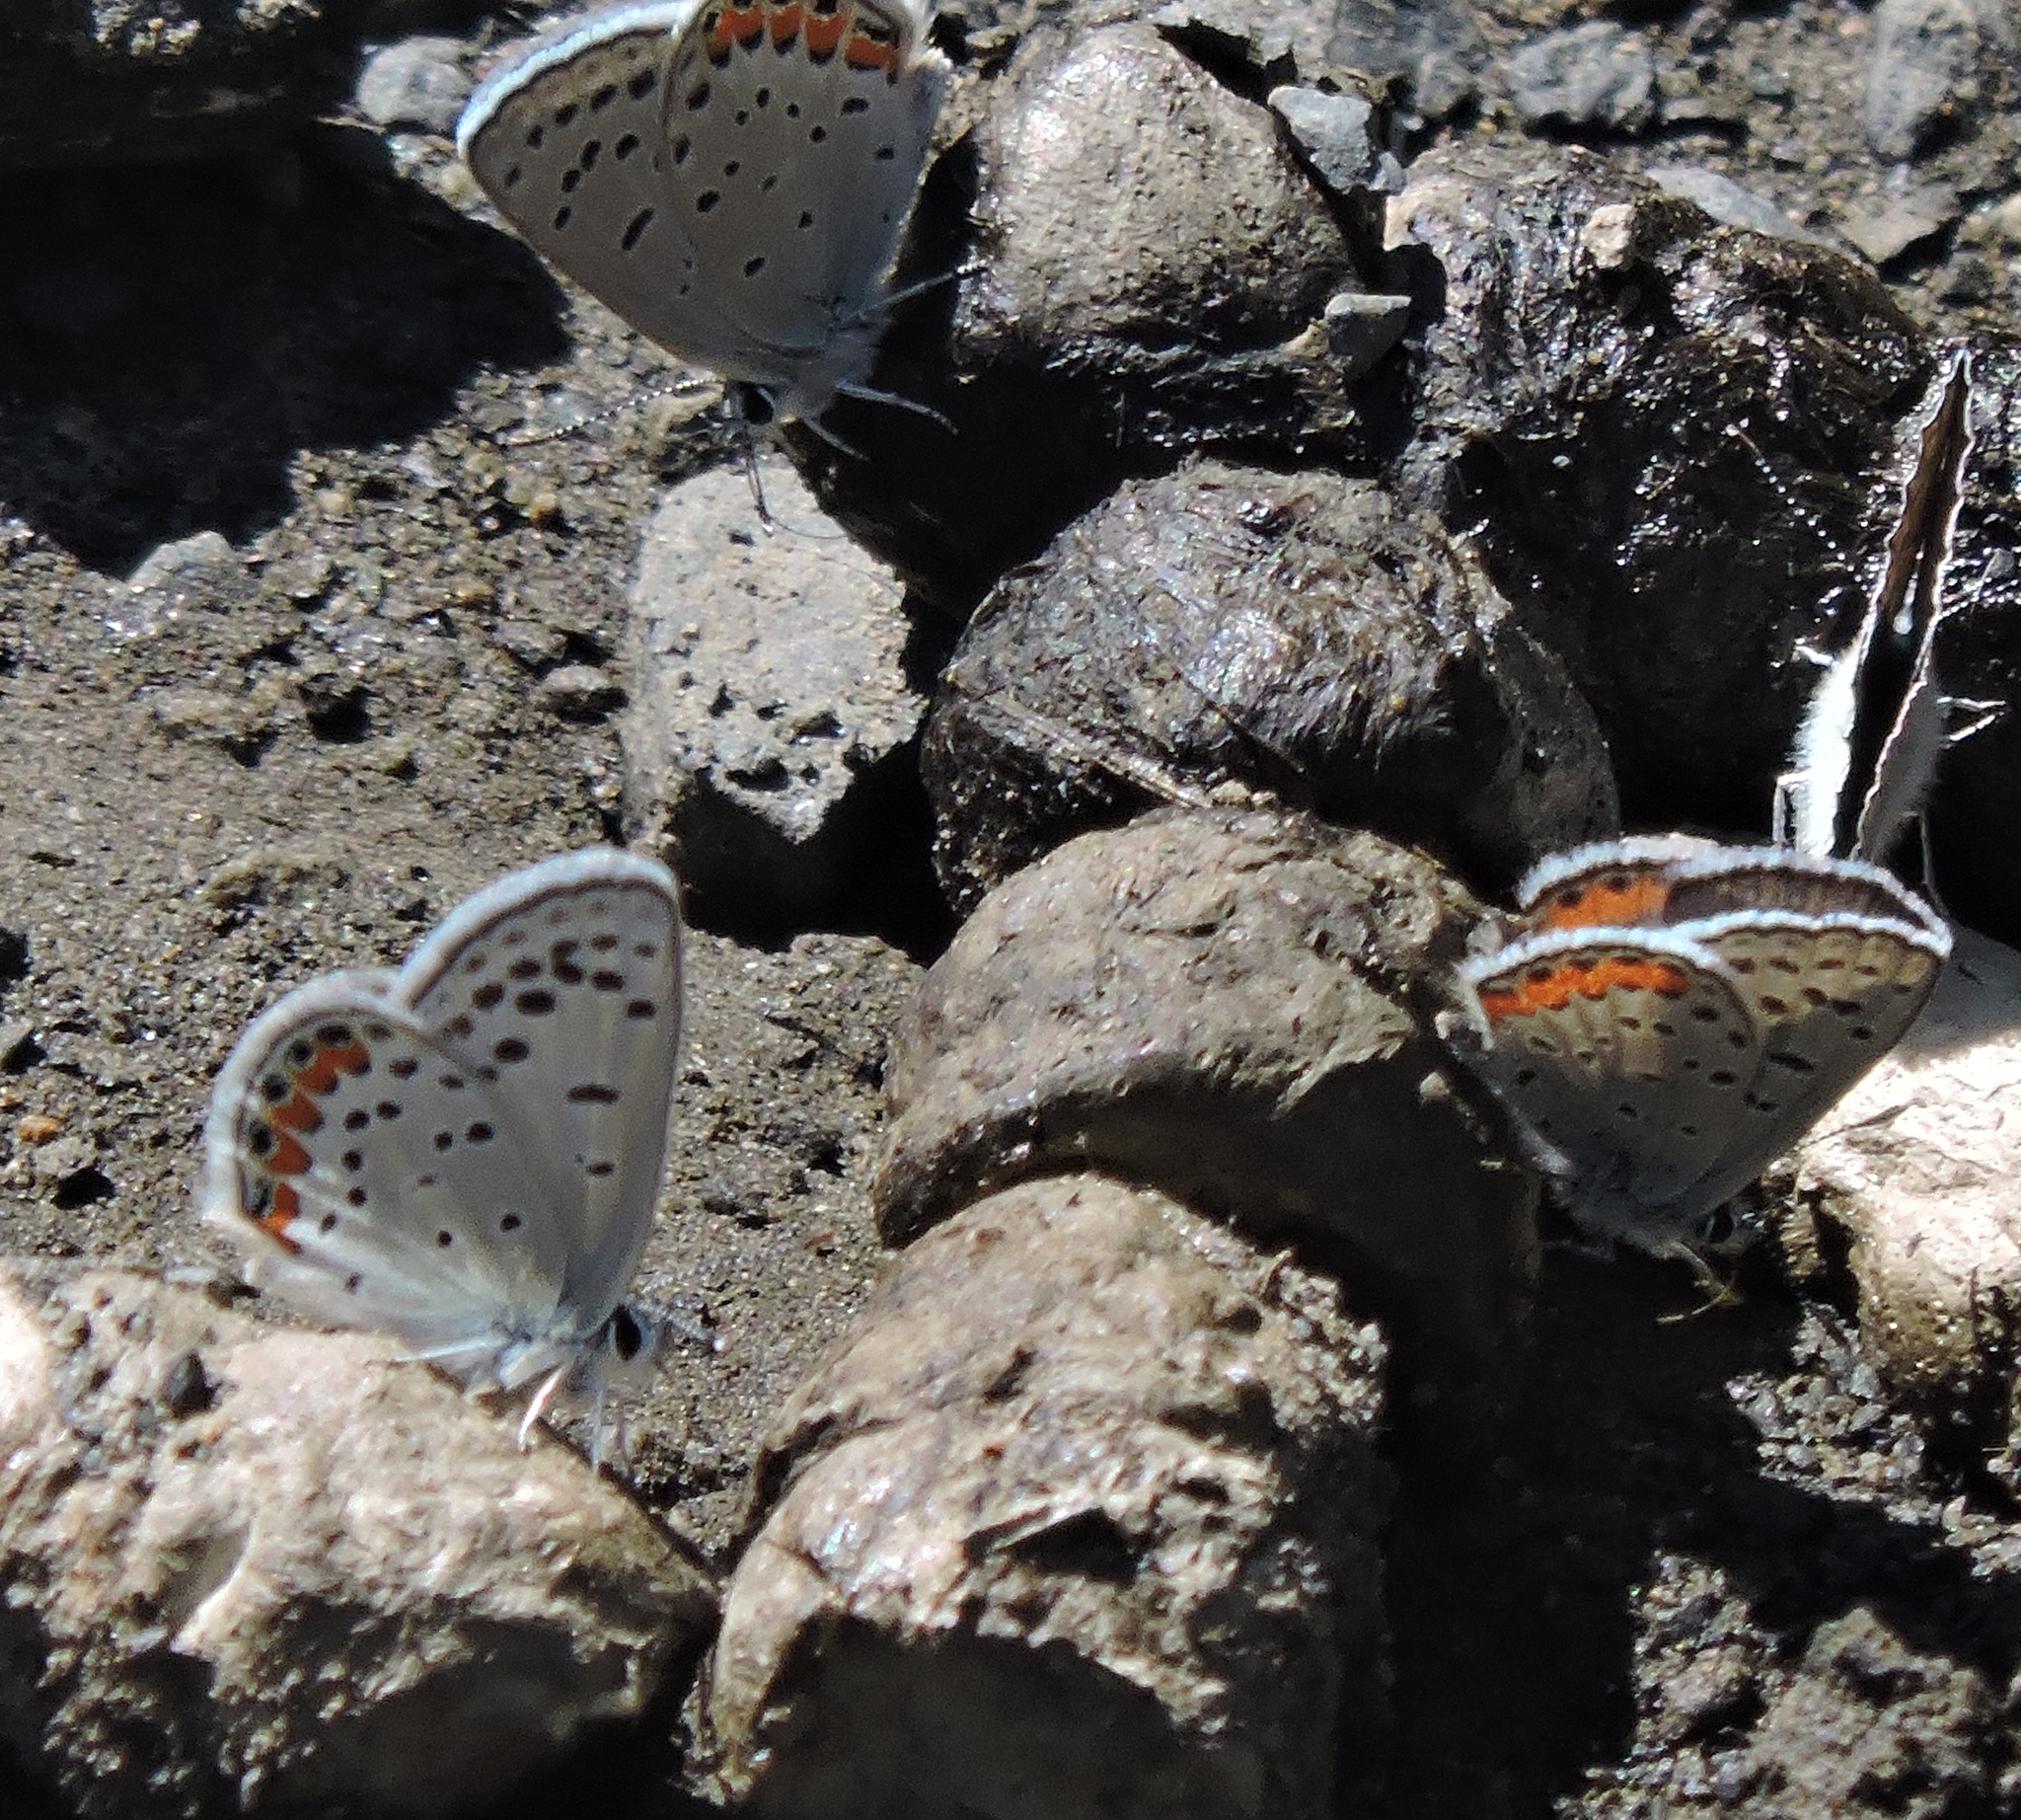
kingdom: Animalia
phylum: Arthropoda
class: Insecta
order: Lepidoptera
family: Lycaenidae
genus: Icaricia
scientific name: Icaricia acmon
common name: Acmon blue
